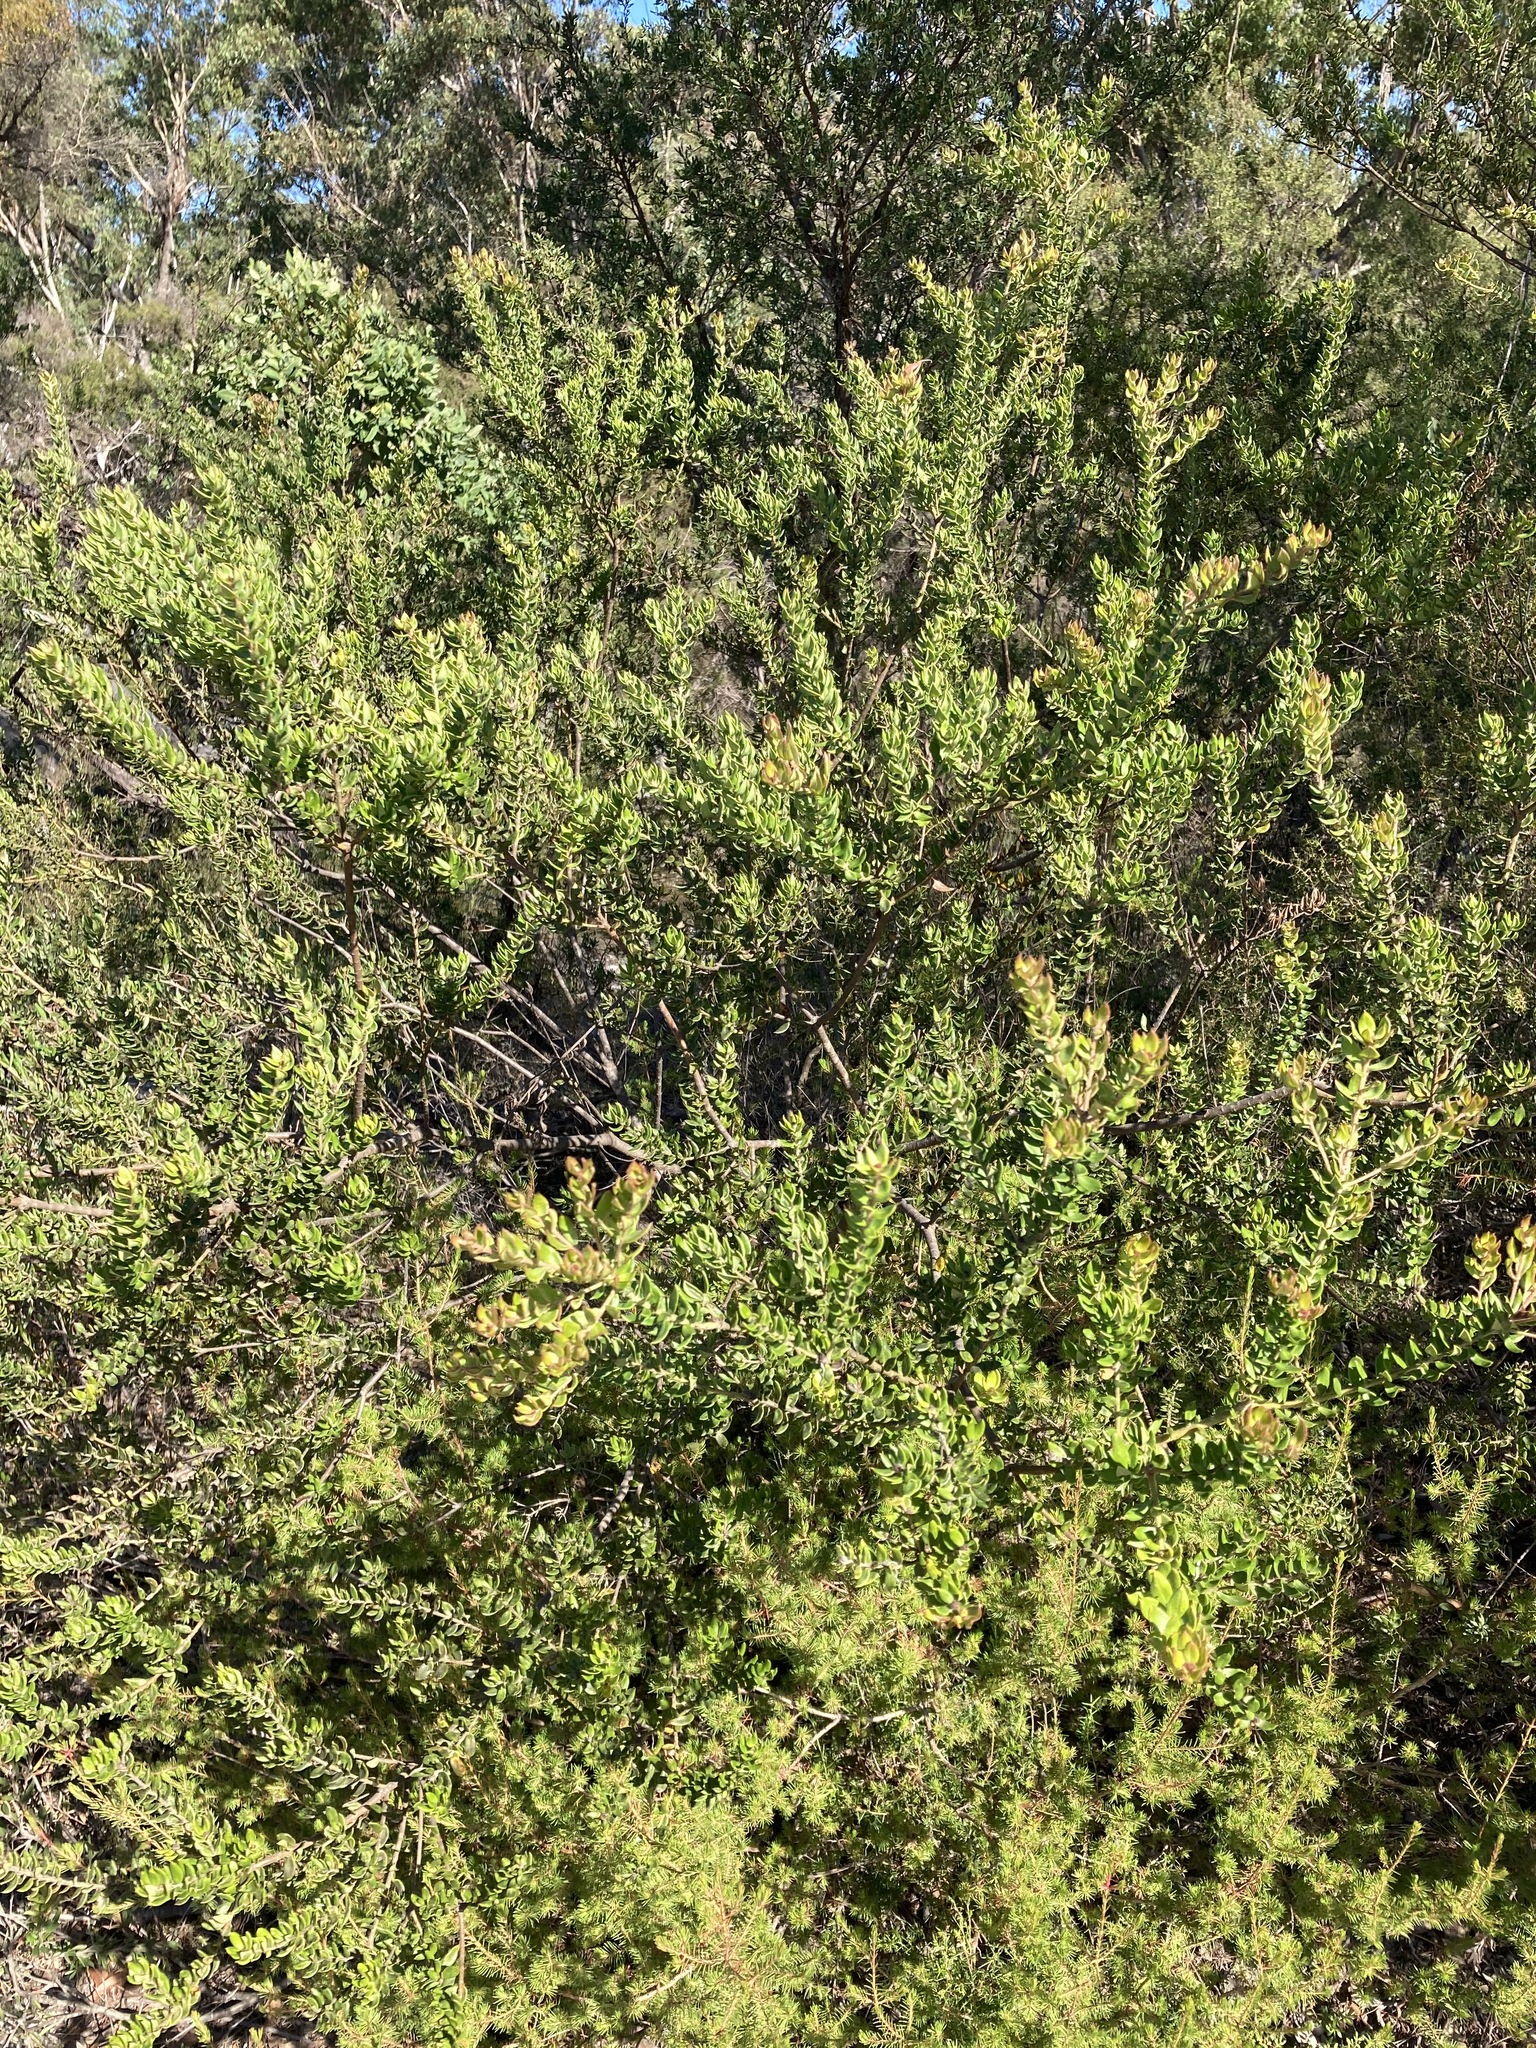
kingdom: Plantae
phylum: Tracheophyta
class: Magnoliopsida
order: Proteales
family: Proteaceae
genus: Grevillea
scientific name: Grevillea buxifolia
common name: Grey spiderflower
